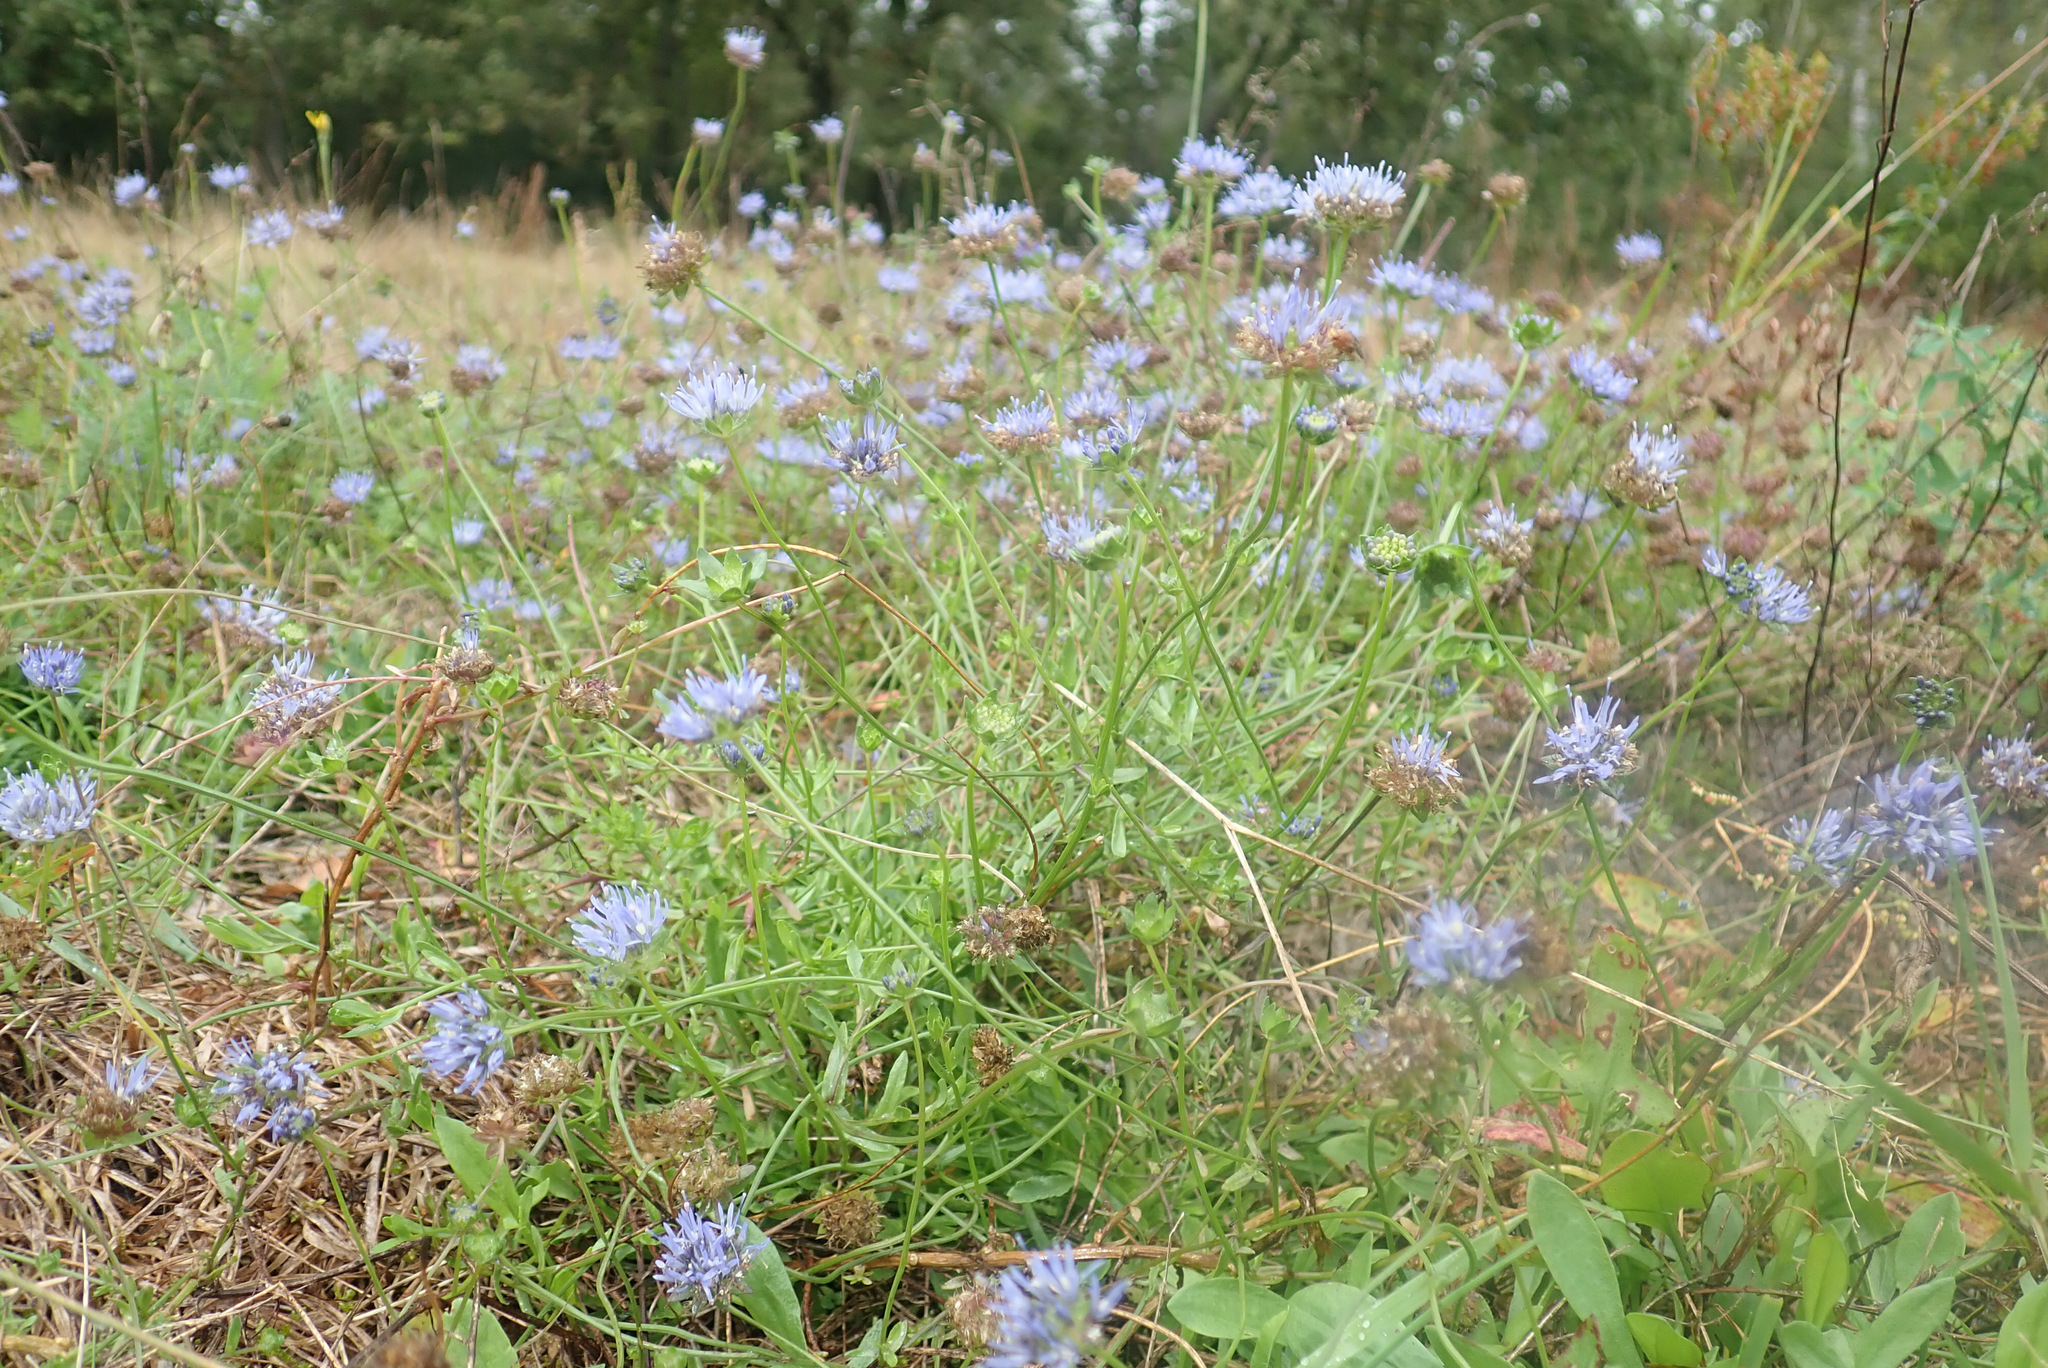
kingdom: Plantae
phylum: Tracheophyta
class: Magnoliopsida
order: Asterales
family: Campanulaceae
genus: Jasione
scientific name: Jasione montana
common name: Sheep's-bit
